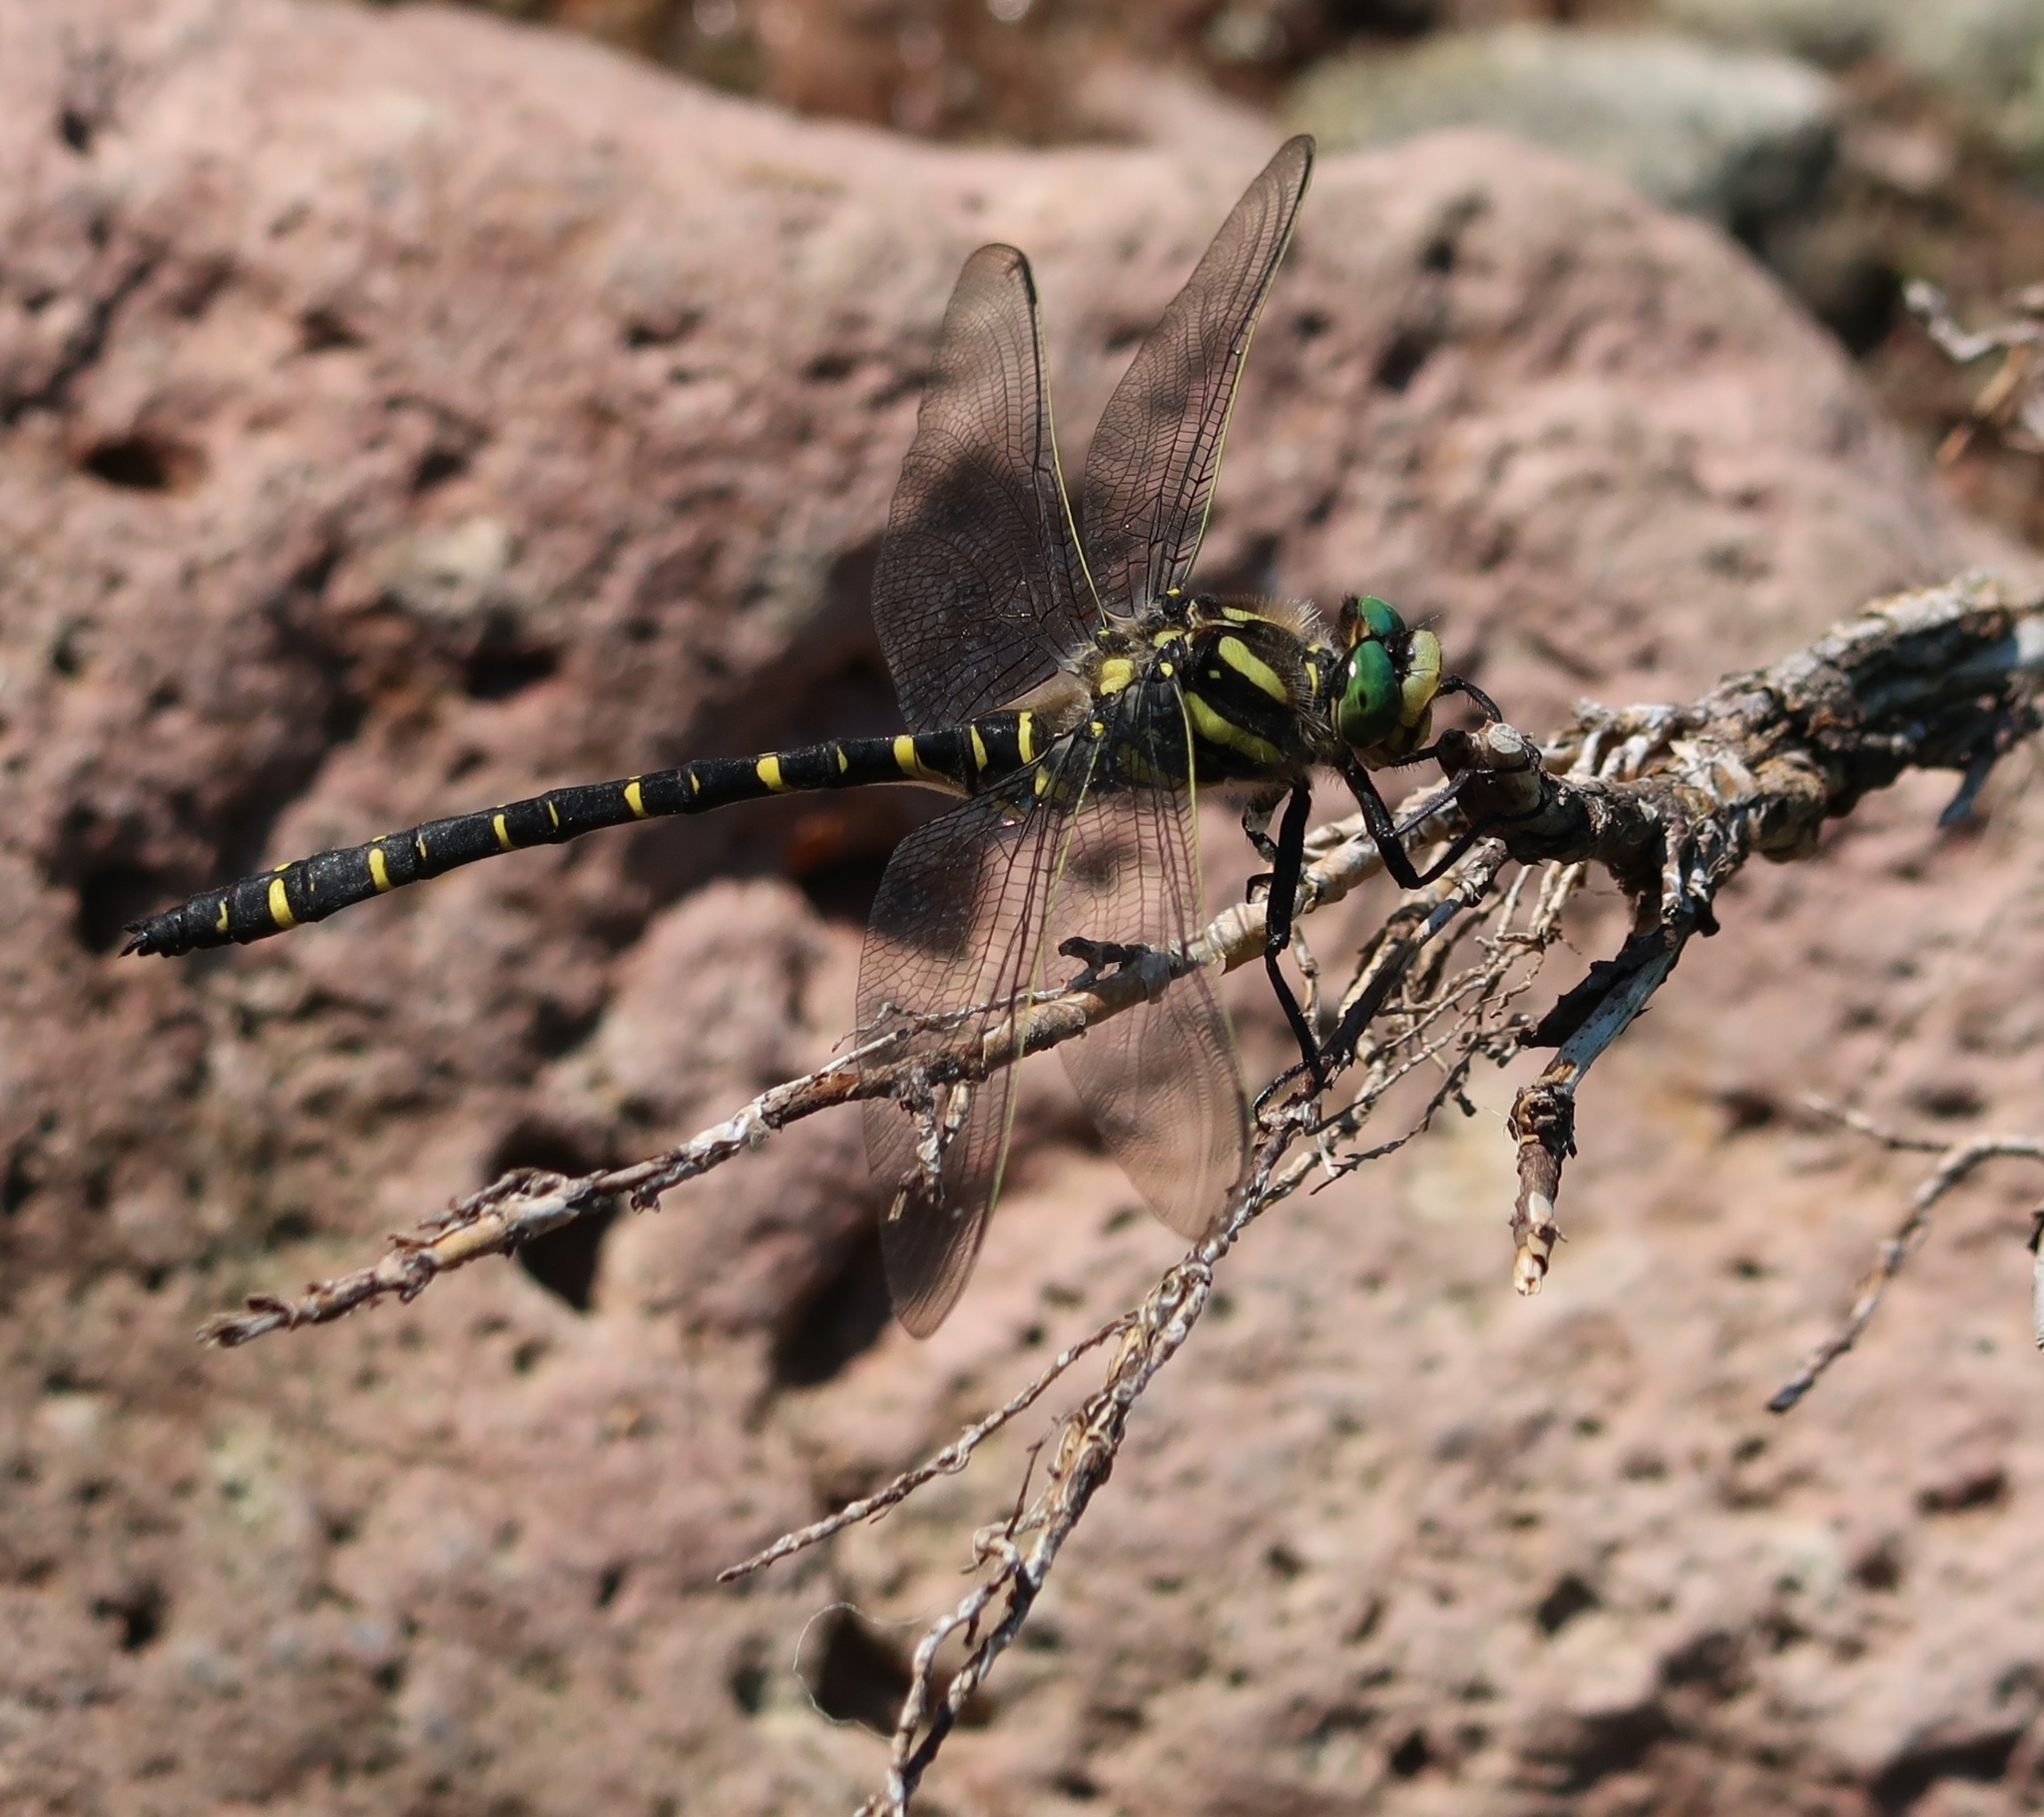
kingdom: Animalia
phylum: Arthropoda
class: Insecta
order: Odonata
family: Cordulegastridae
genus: Cordulegaster
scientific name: Cordulegaster boltonii
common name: Golden-ringed dragonfly
